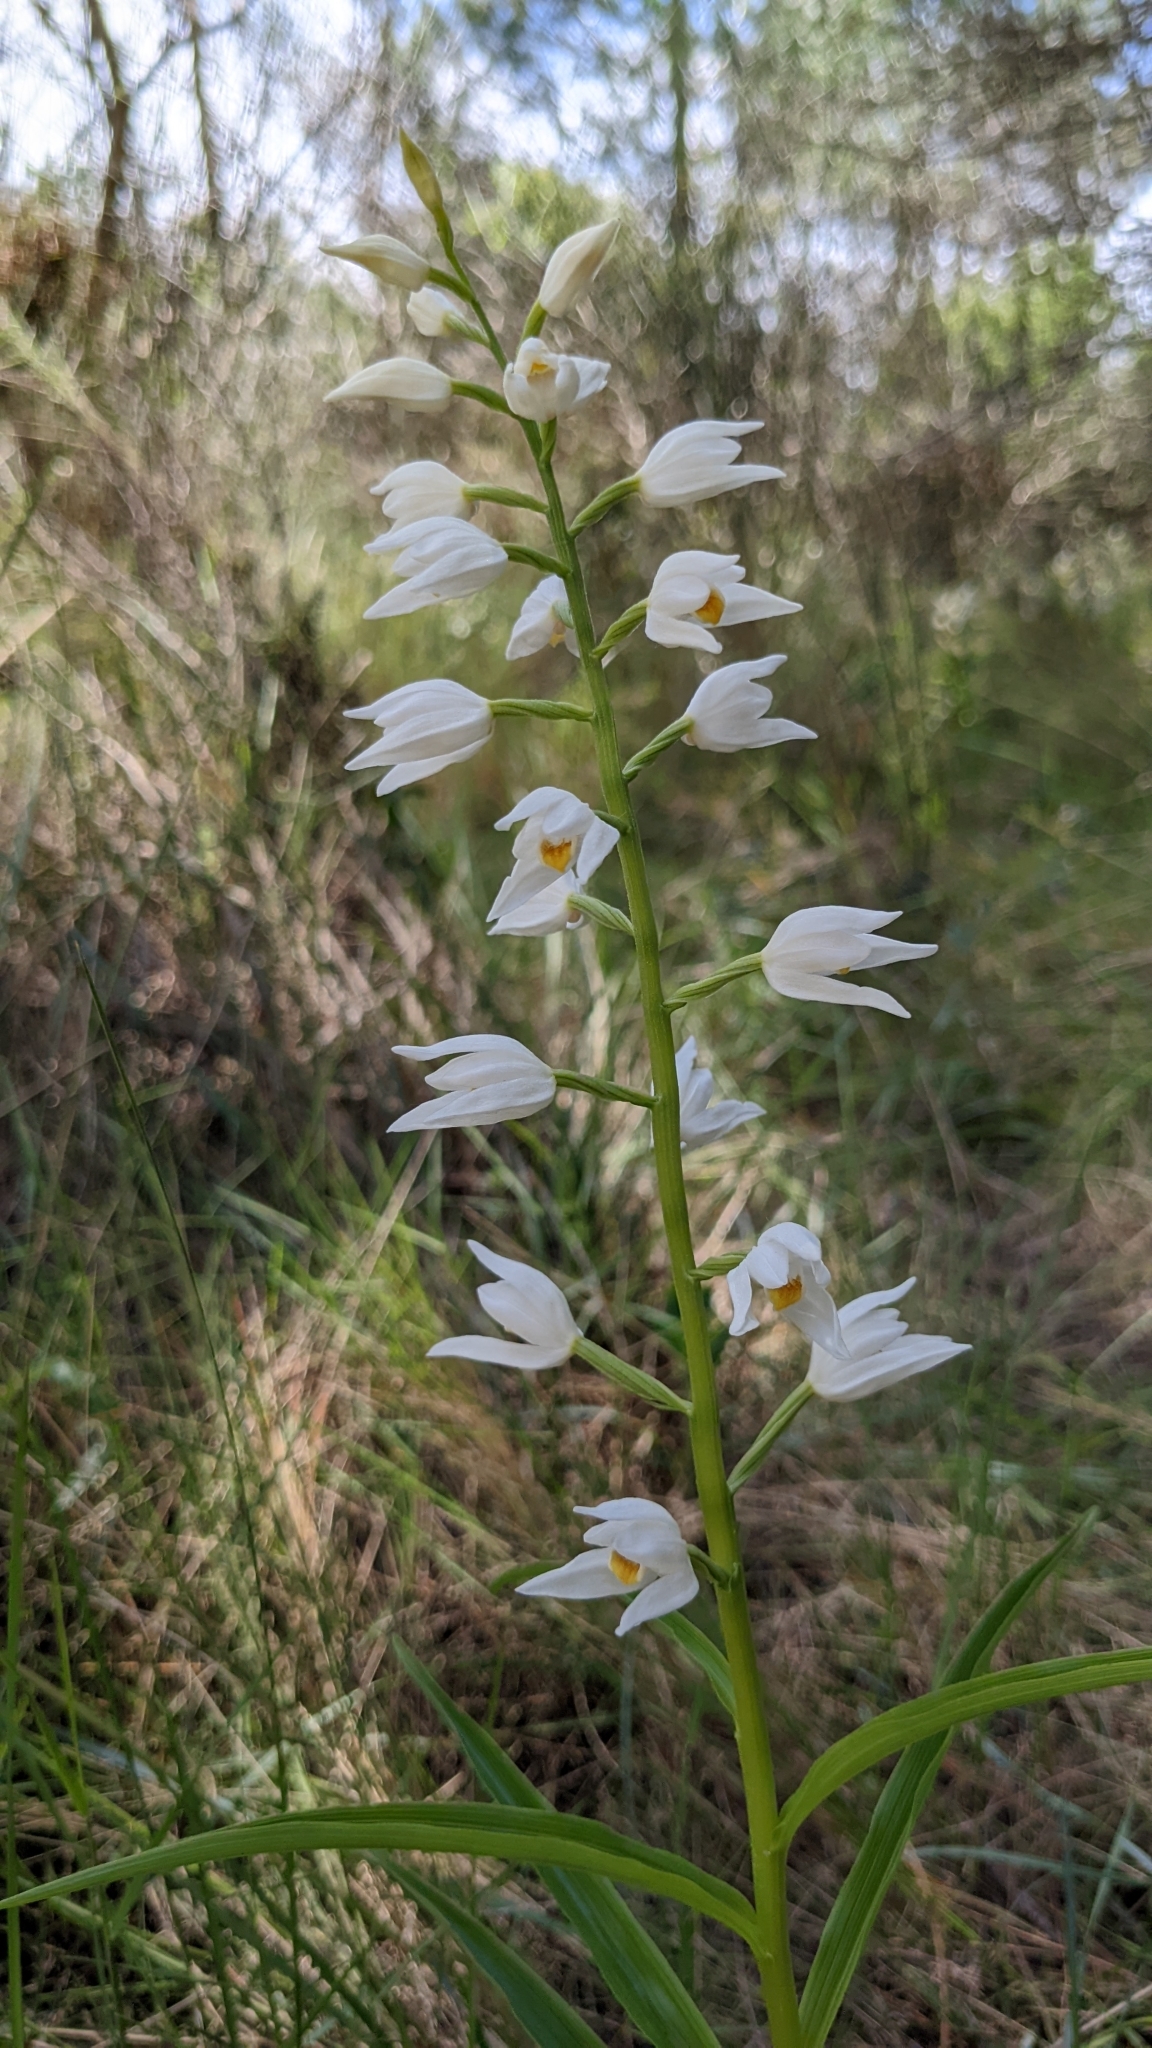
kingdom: Plantae
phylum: Tracheophyta
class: Liliopsida
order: Asparagales
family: Orchidaceae
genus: Cephalanthera
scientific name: Cephalanthera longifolia
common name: Narrow-leaved helleborine
